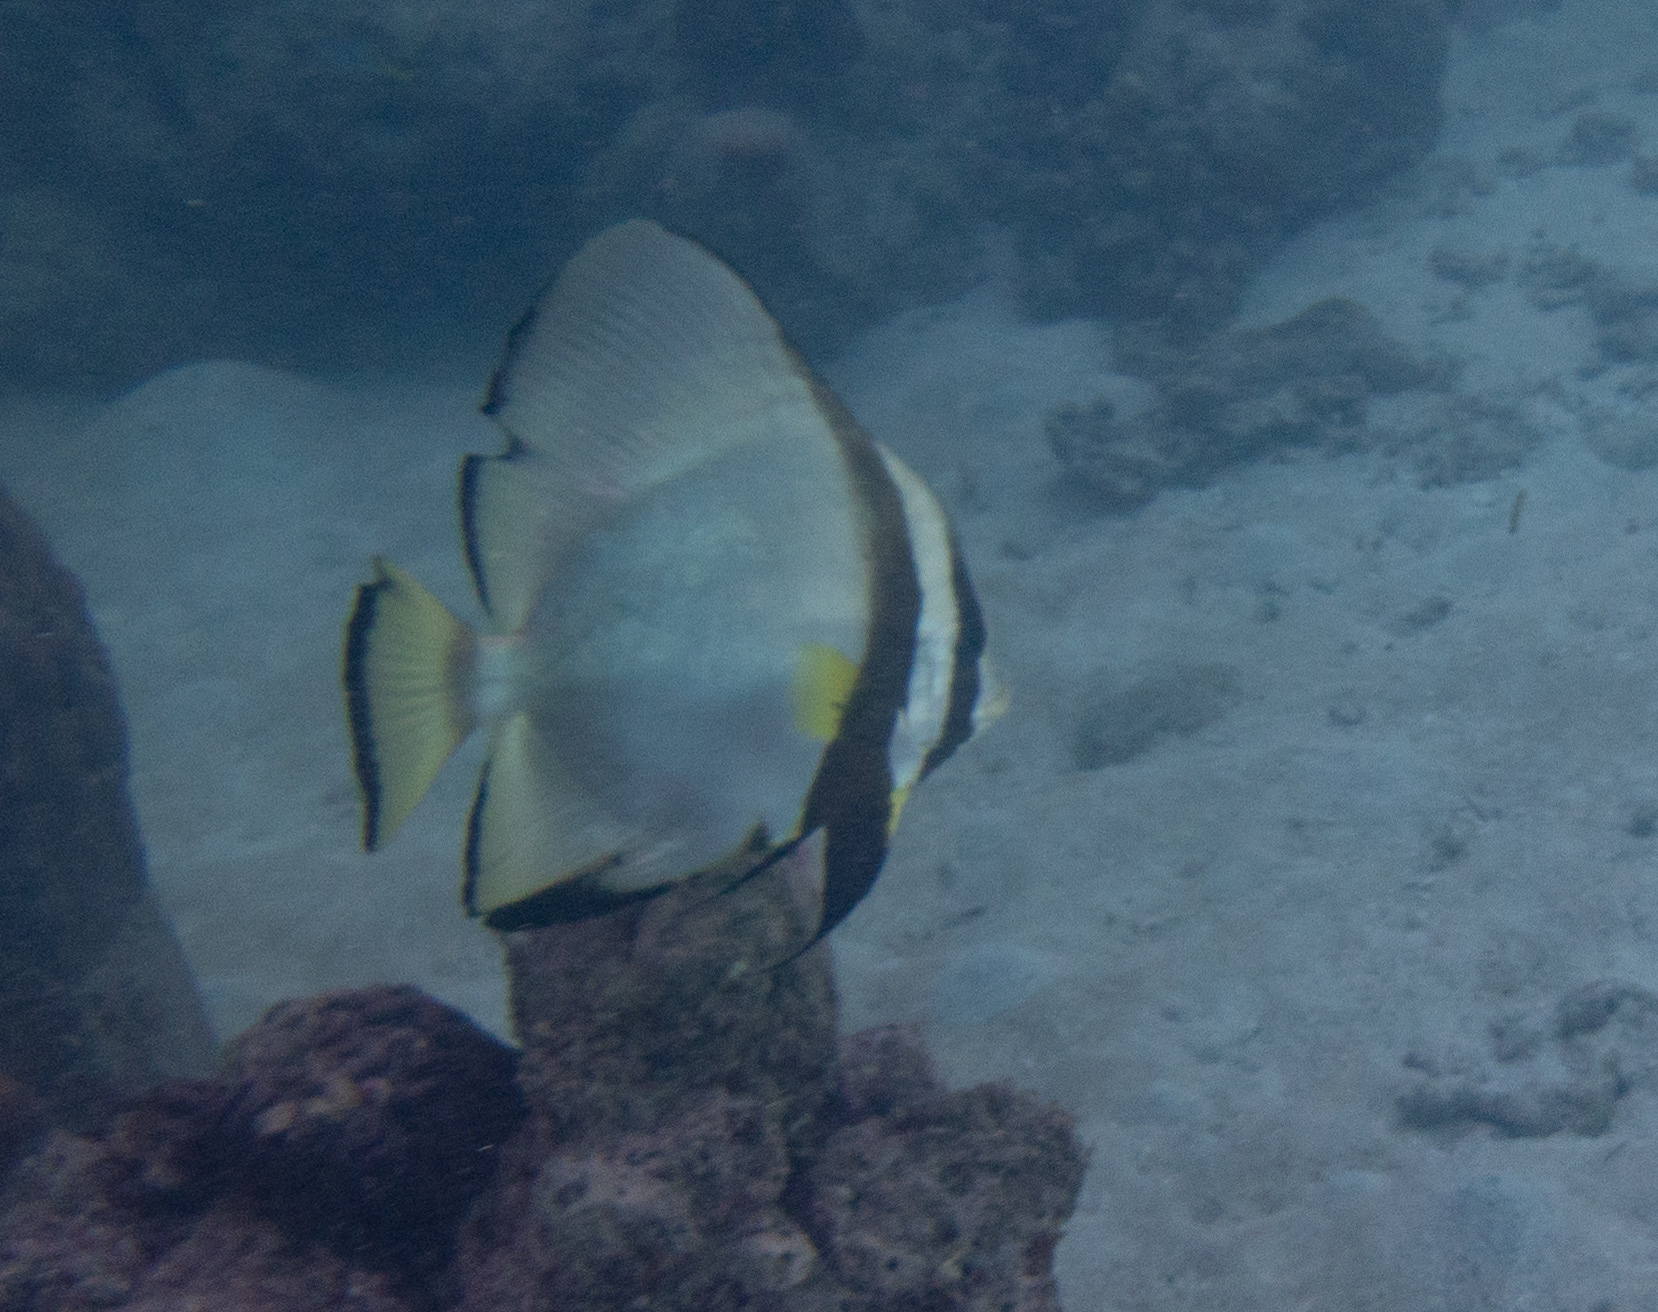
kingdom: Animalia
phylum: Chordata
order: Perciformes
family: Ephippidae
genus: Platax
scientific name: Platax pinnatus
